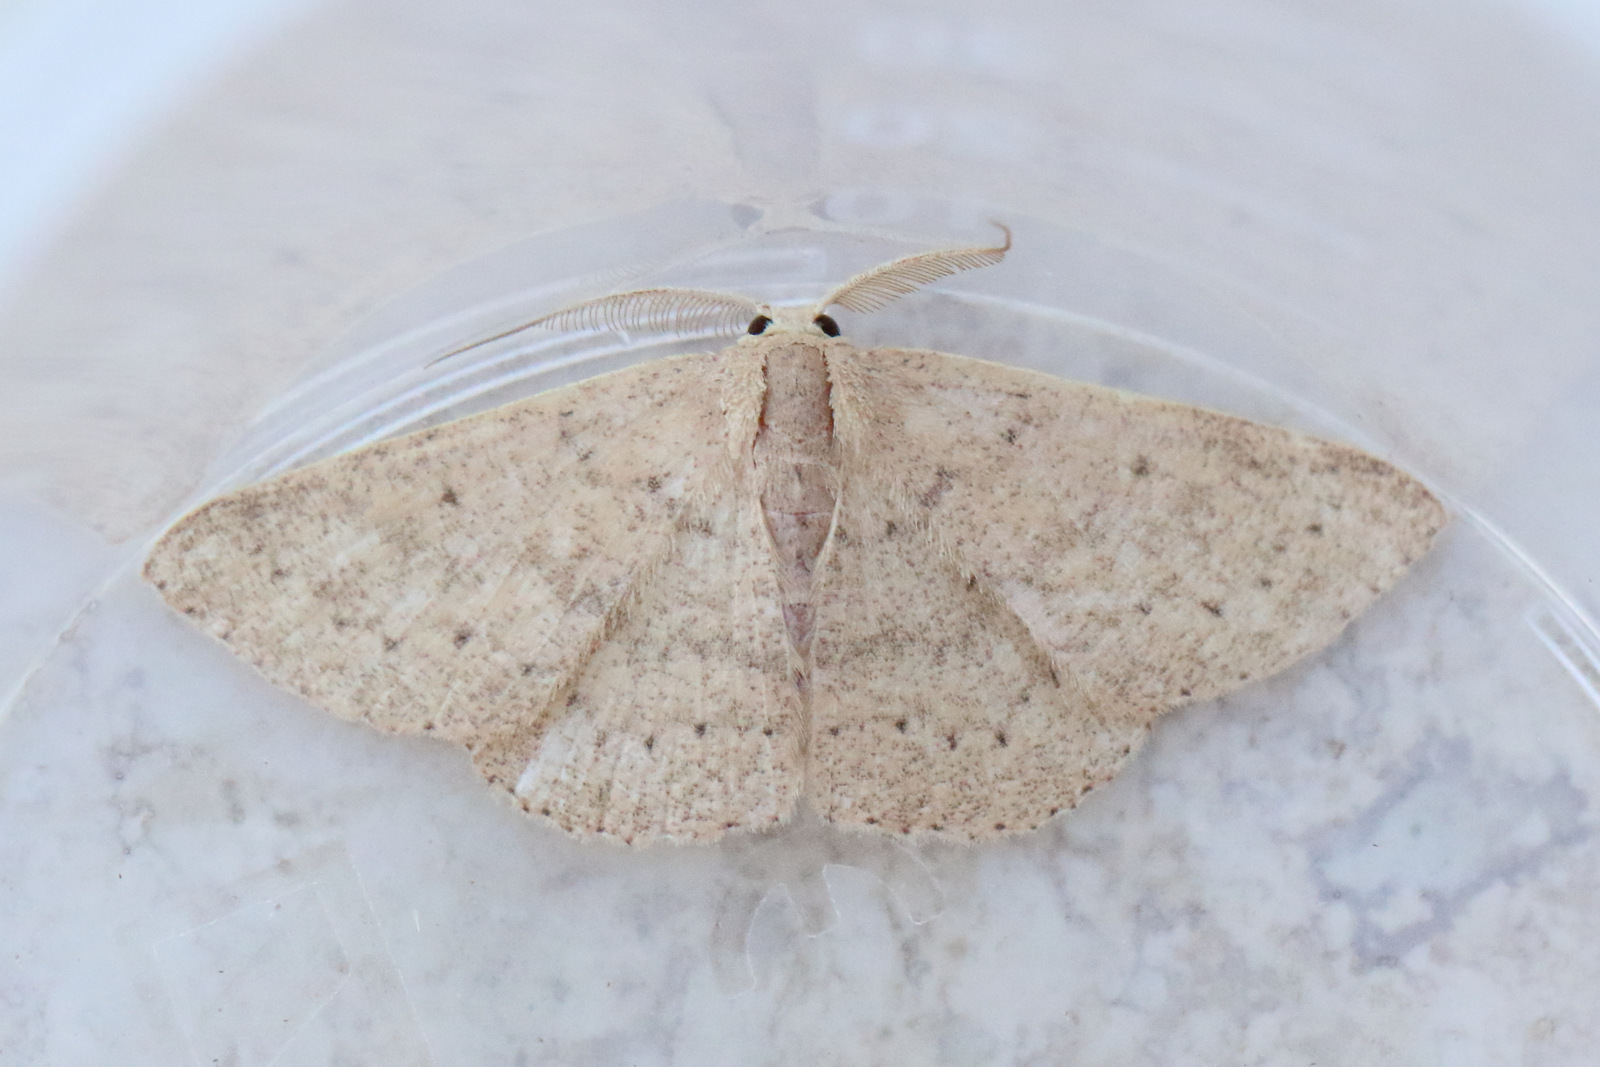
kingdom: Animalia
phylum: Arthropoda
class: Insecta
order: Lepidoptera
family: Geometridae
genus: Cyclophora
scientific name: Cyclophora obstataria
